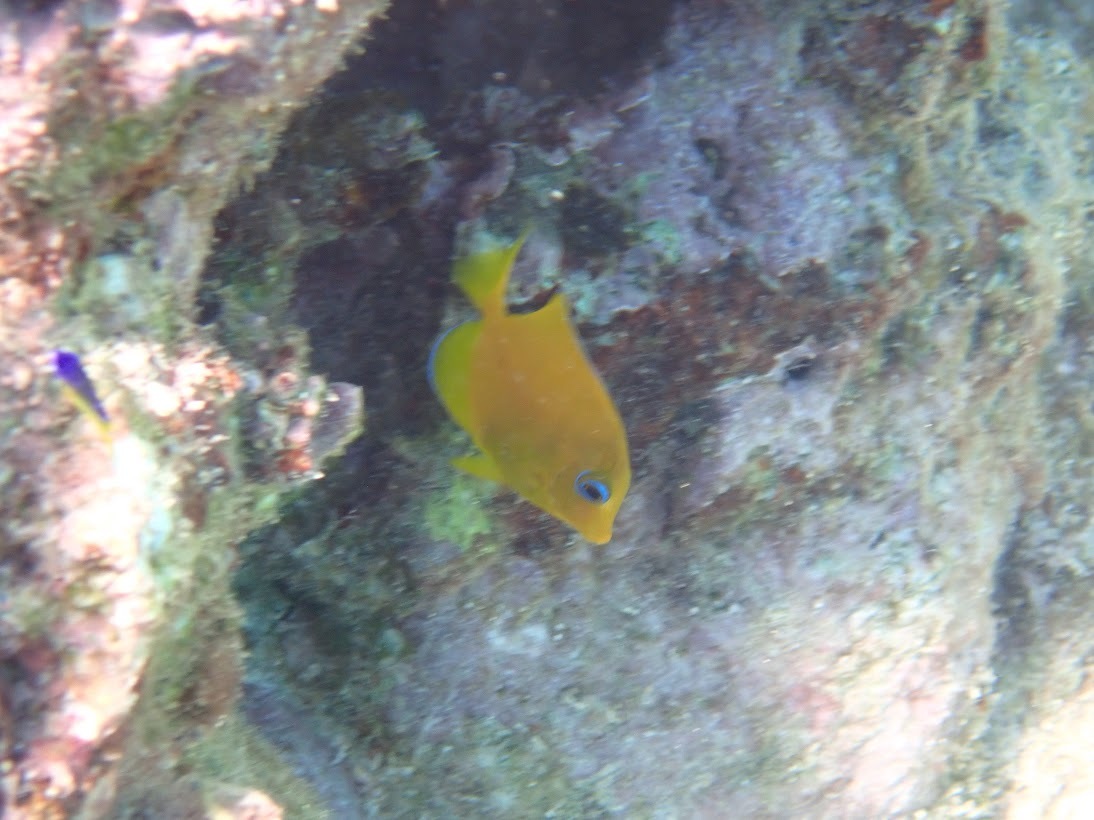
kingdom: Animalia
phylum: Chordata
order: Perciformes
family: Acanthuridae
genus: Acanthurus
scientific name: Acanthurus coeruleus
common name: Blue tang
